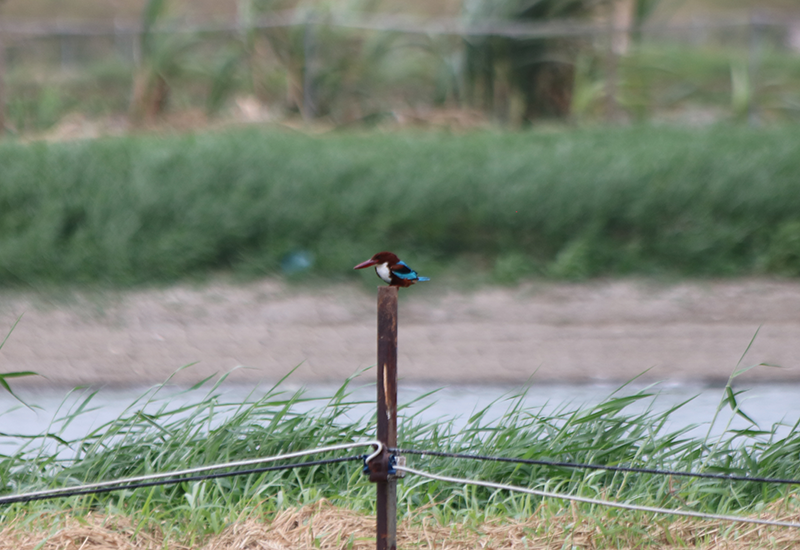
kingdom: Animalia
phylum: Chordata
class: Aves
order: Coraciiformes
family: Alcedinidae
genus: Halcyon
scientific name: Halcyon smyrnensis
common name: White-throated kingfisher
